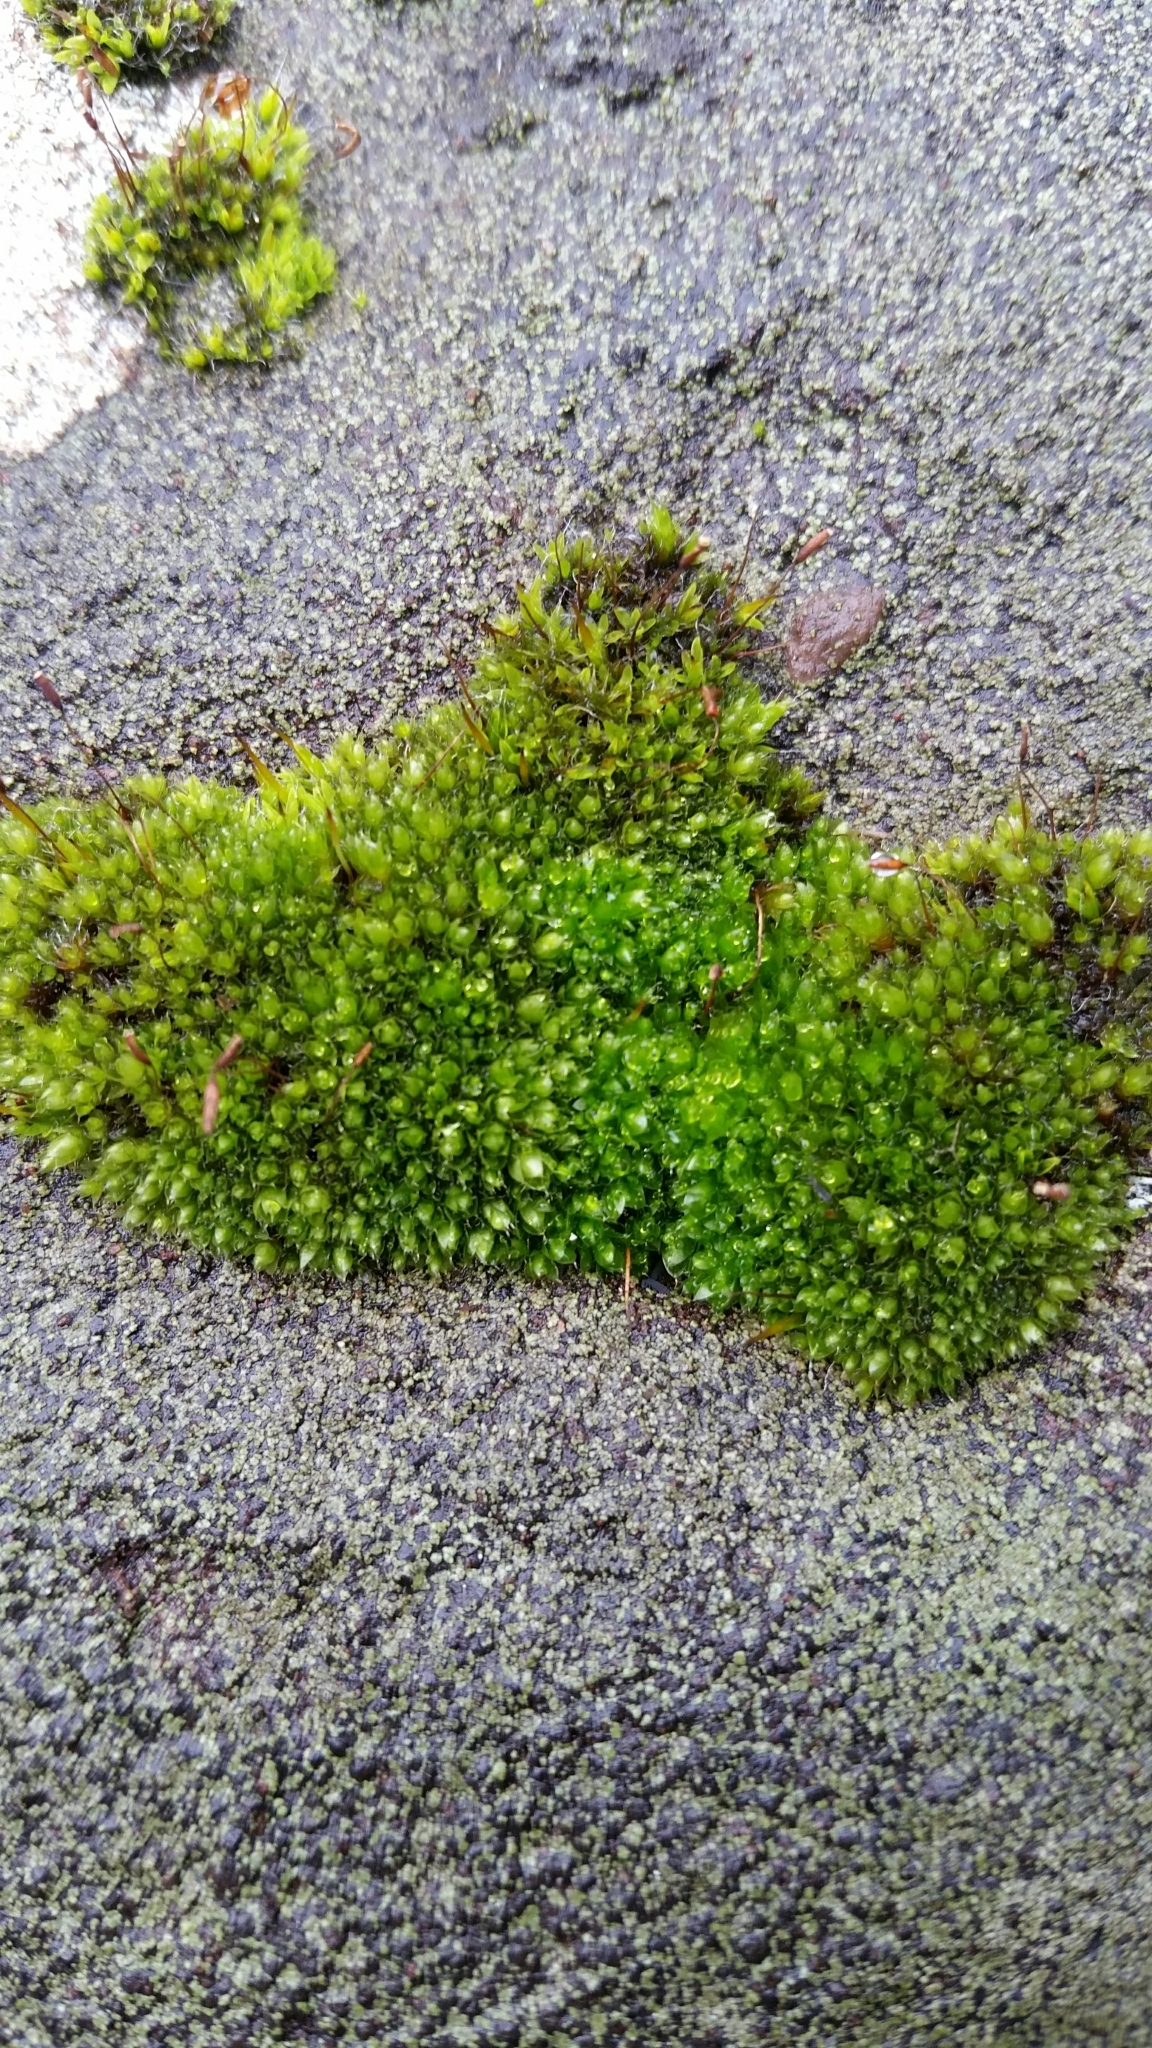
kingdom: Plantae
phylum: Bryophyta
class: Bryopsida
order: Bryales
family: Bryaceae
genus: Rosulabryum
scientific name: Rosulabryum capillare
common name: Capillary thread-moss
